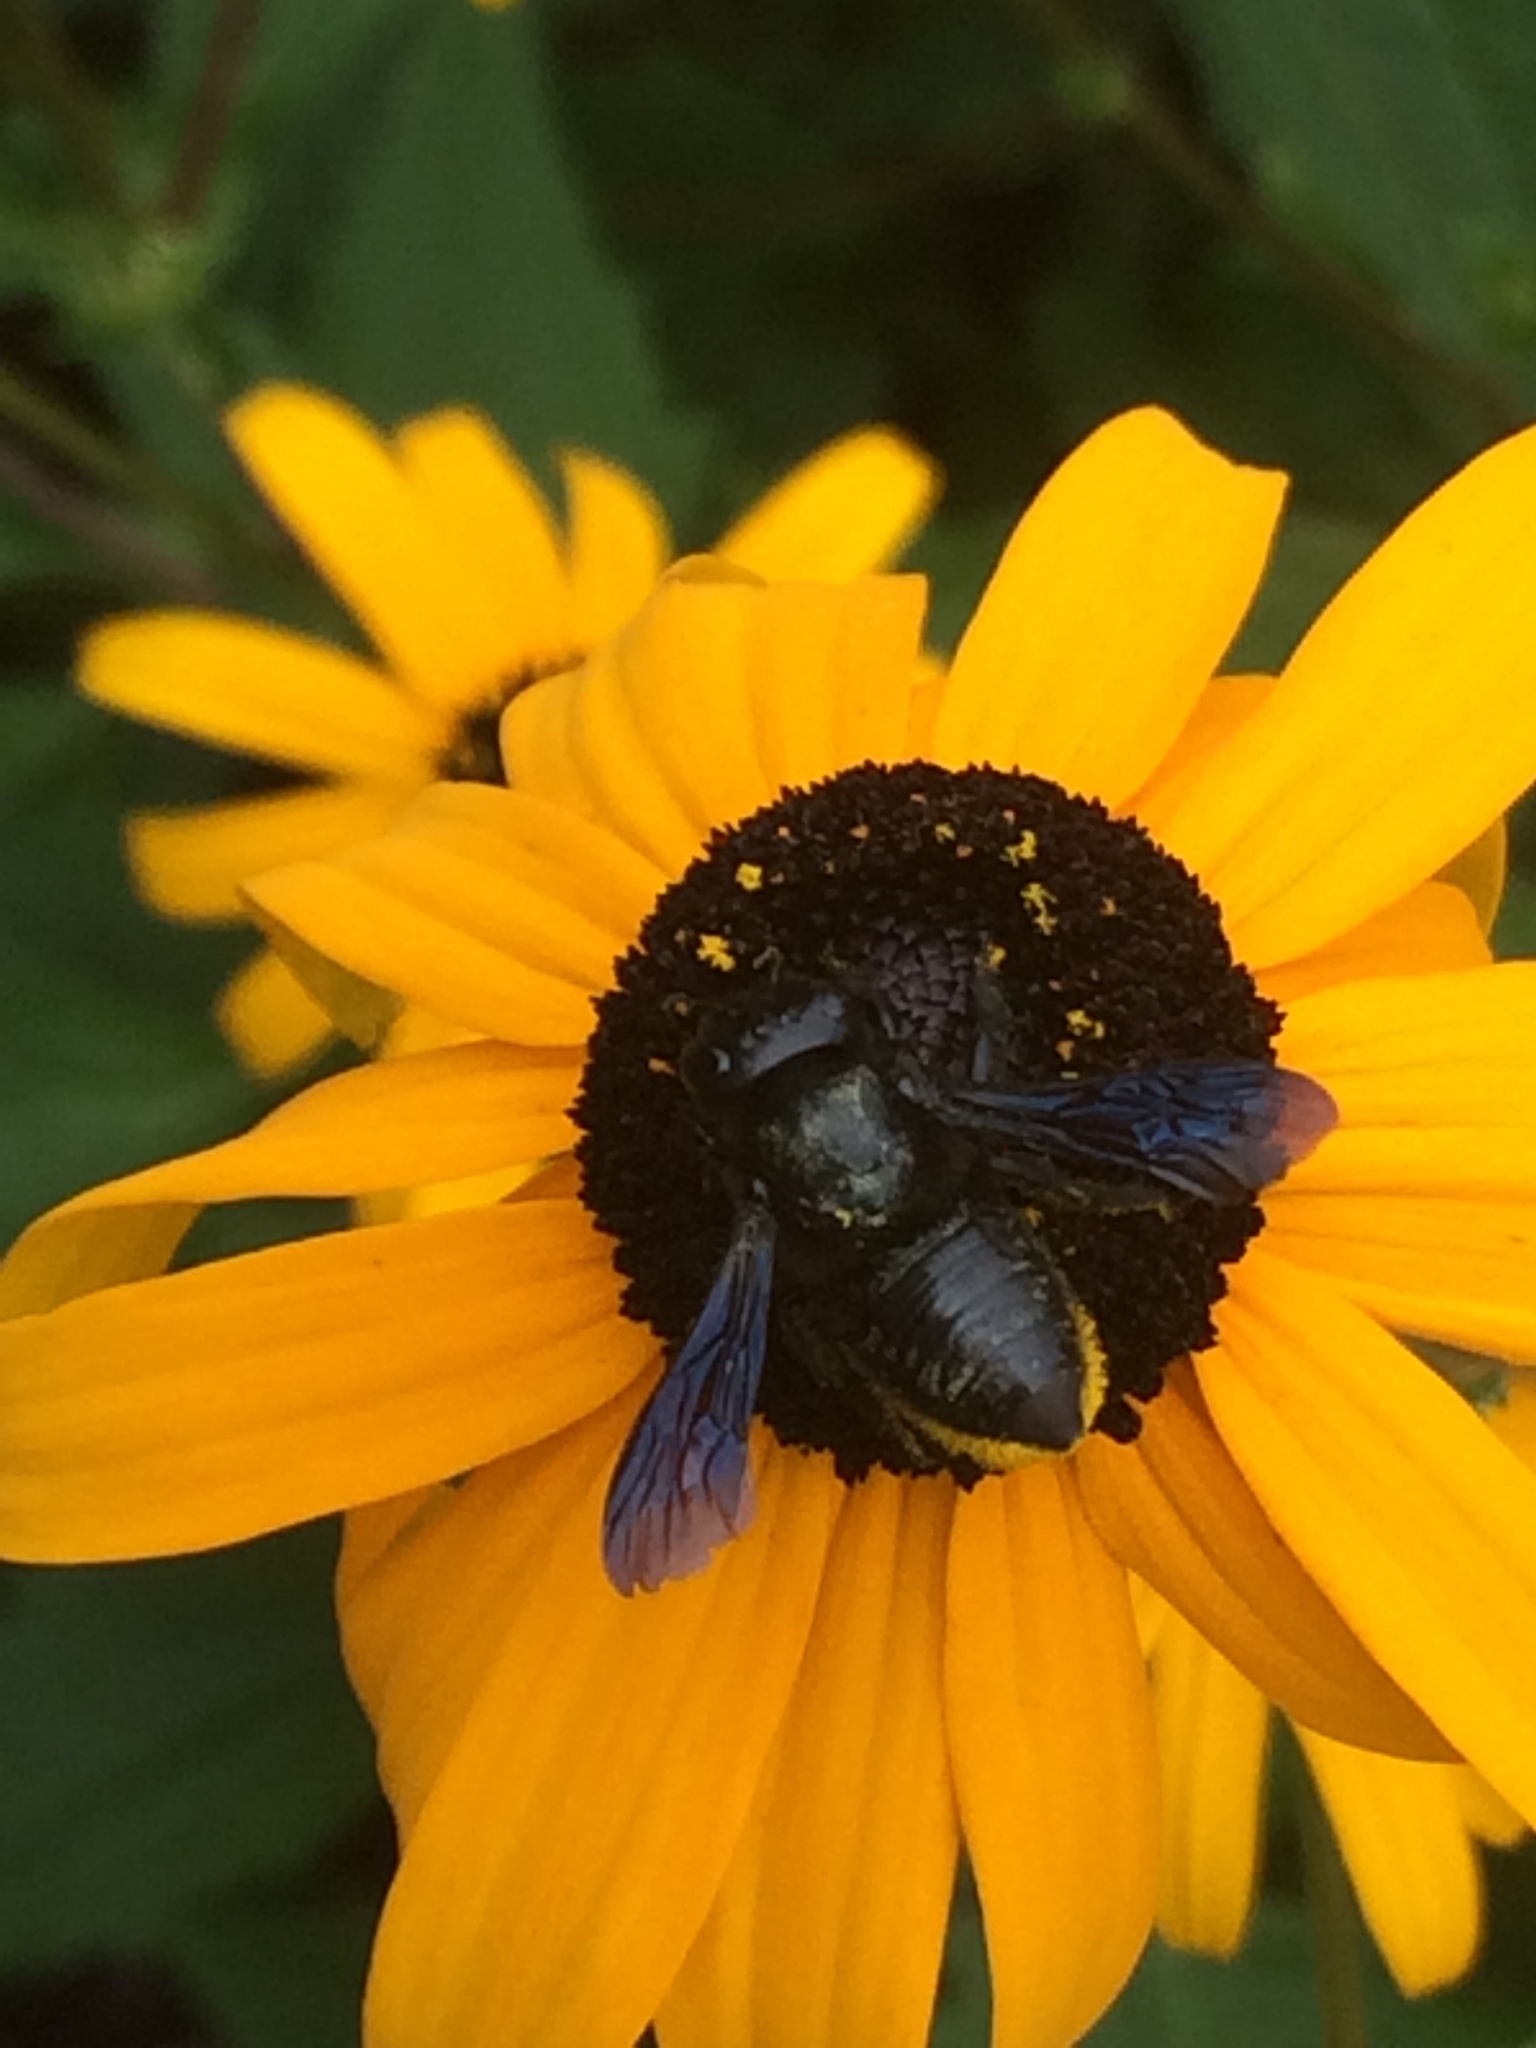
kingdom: Animalia
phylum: Arthropoda
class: Insecta
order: Hymenoptera
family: Megachilidae
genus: Megachile
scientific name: Megachile xylocopoides
